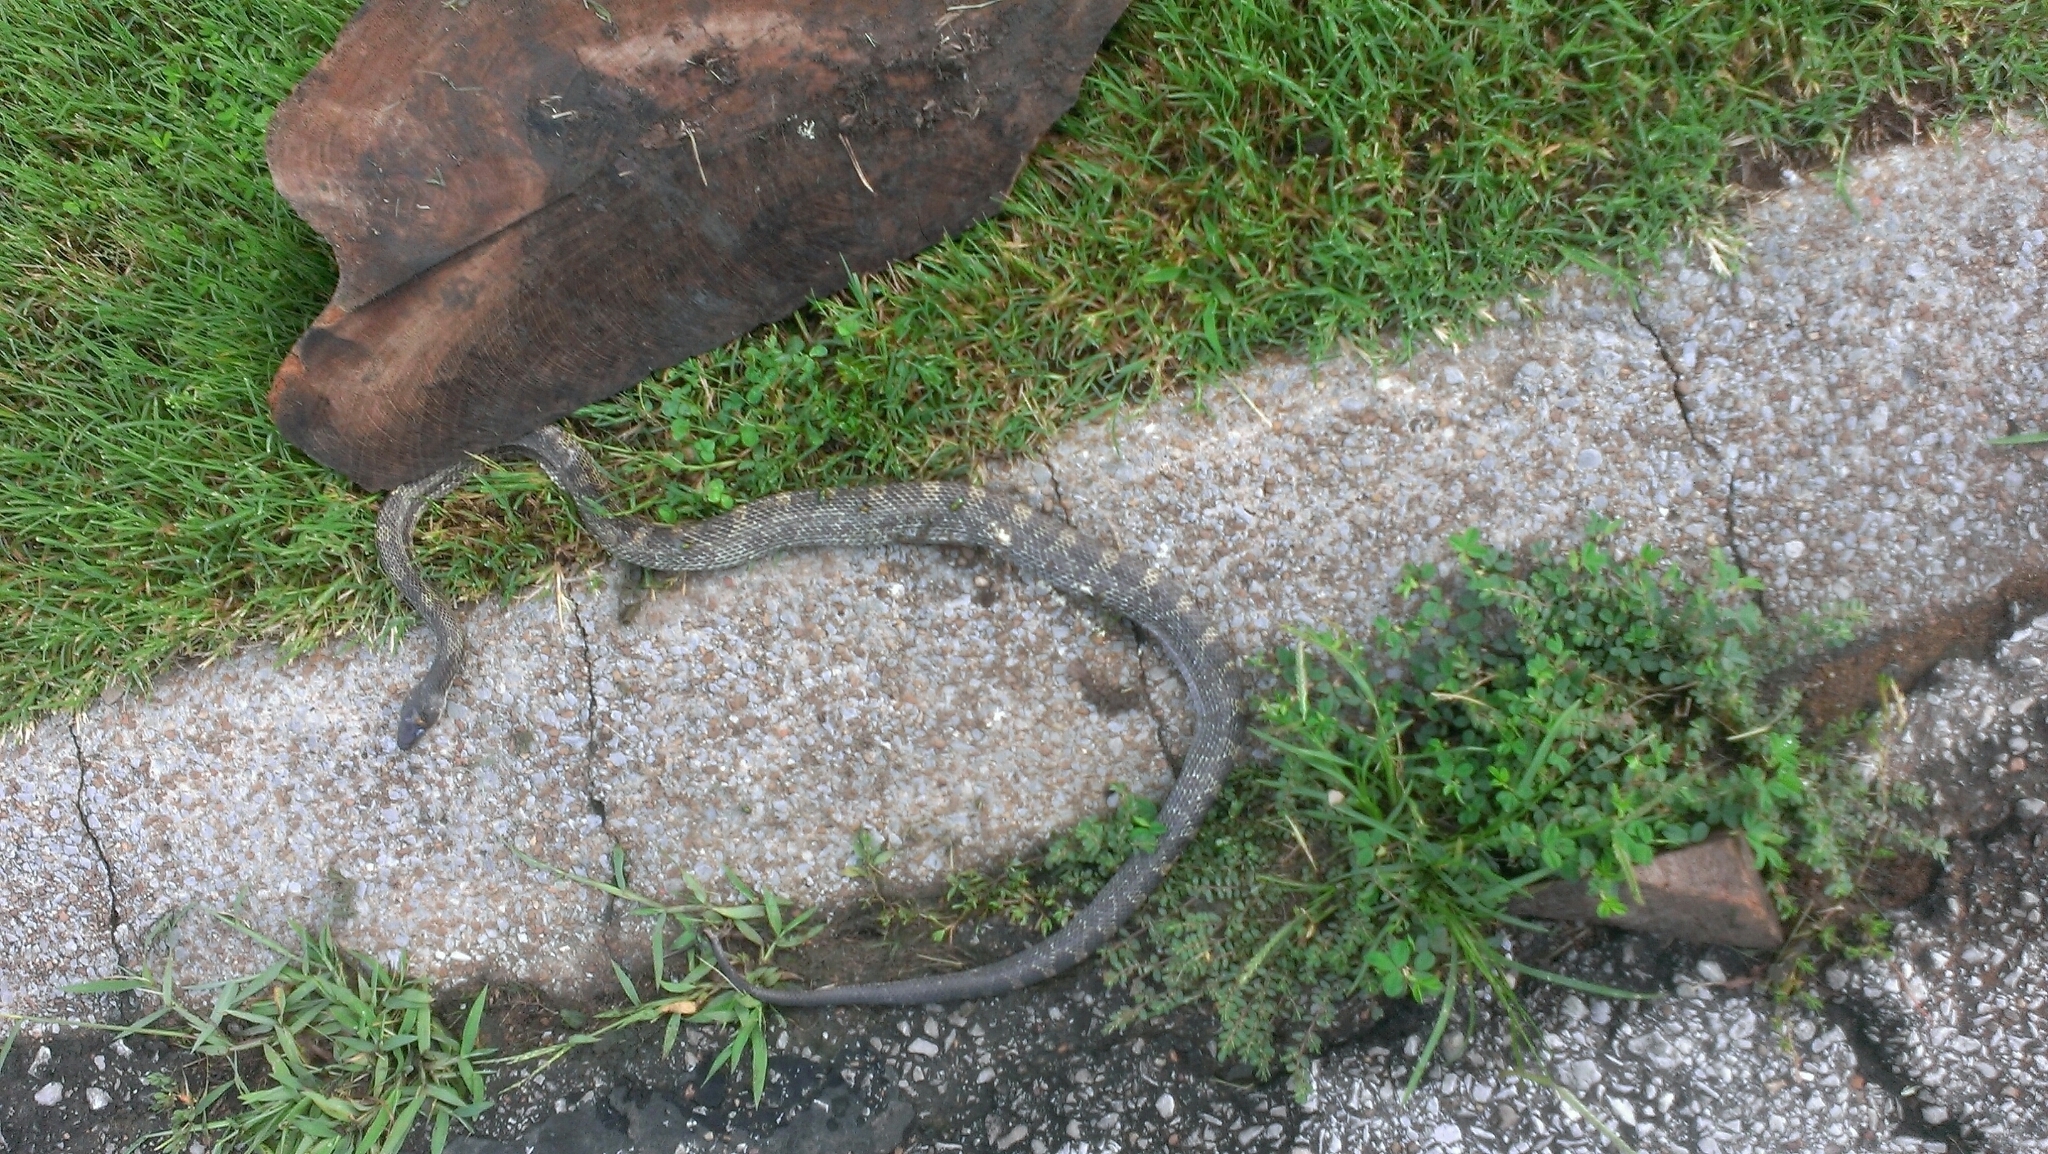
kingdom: Animalia
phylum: Chordata
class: Squamata
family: Colubridae
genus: Pantherophis
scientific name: Pantherophis spiloides
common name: Gray rat snake
